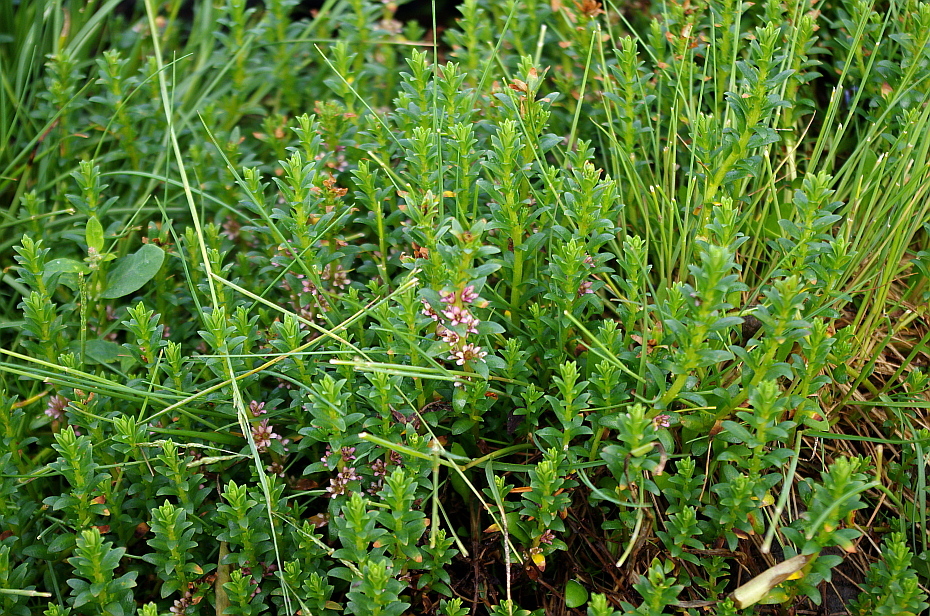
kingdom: Plantae
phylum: Tracheophyta
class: Magnoliopsida
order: Ericales
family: Primulaceae
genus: Lysimachia
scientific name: Lysimachia maritima
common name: Sea milkwort
